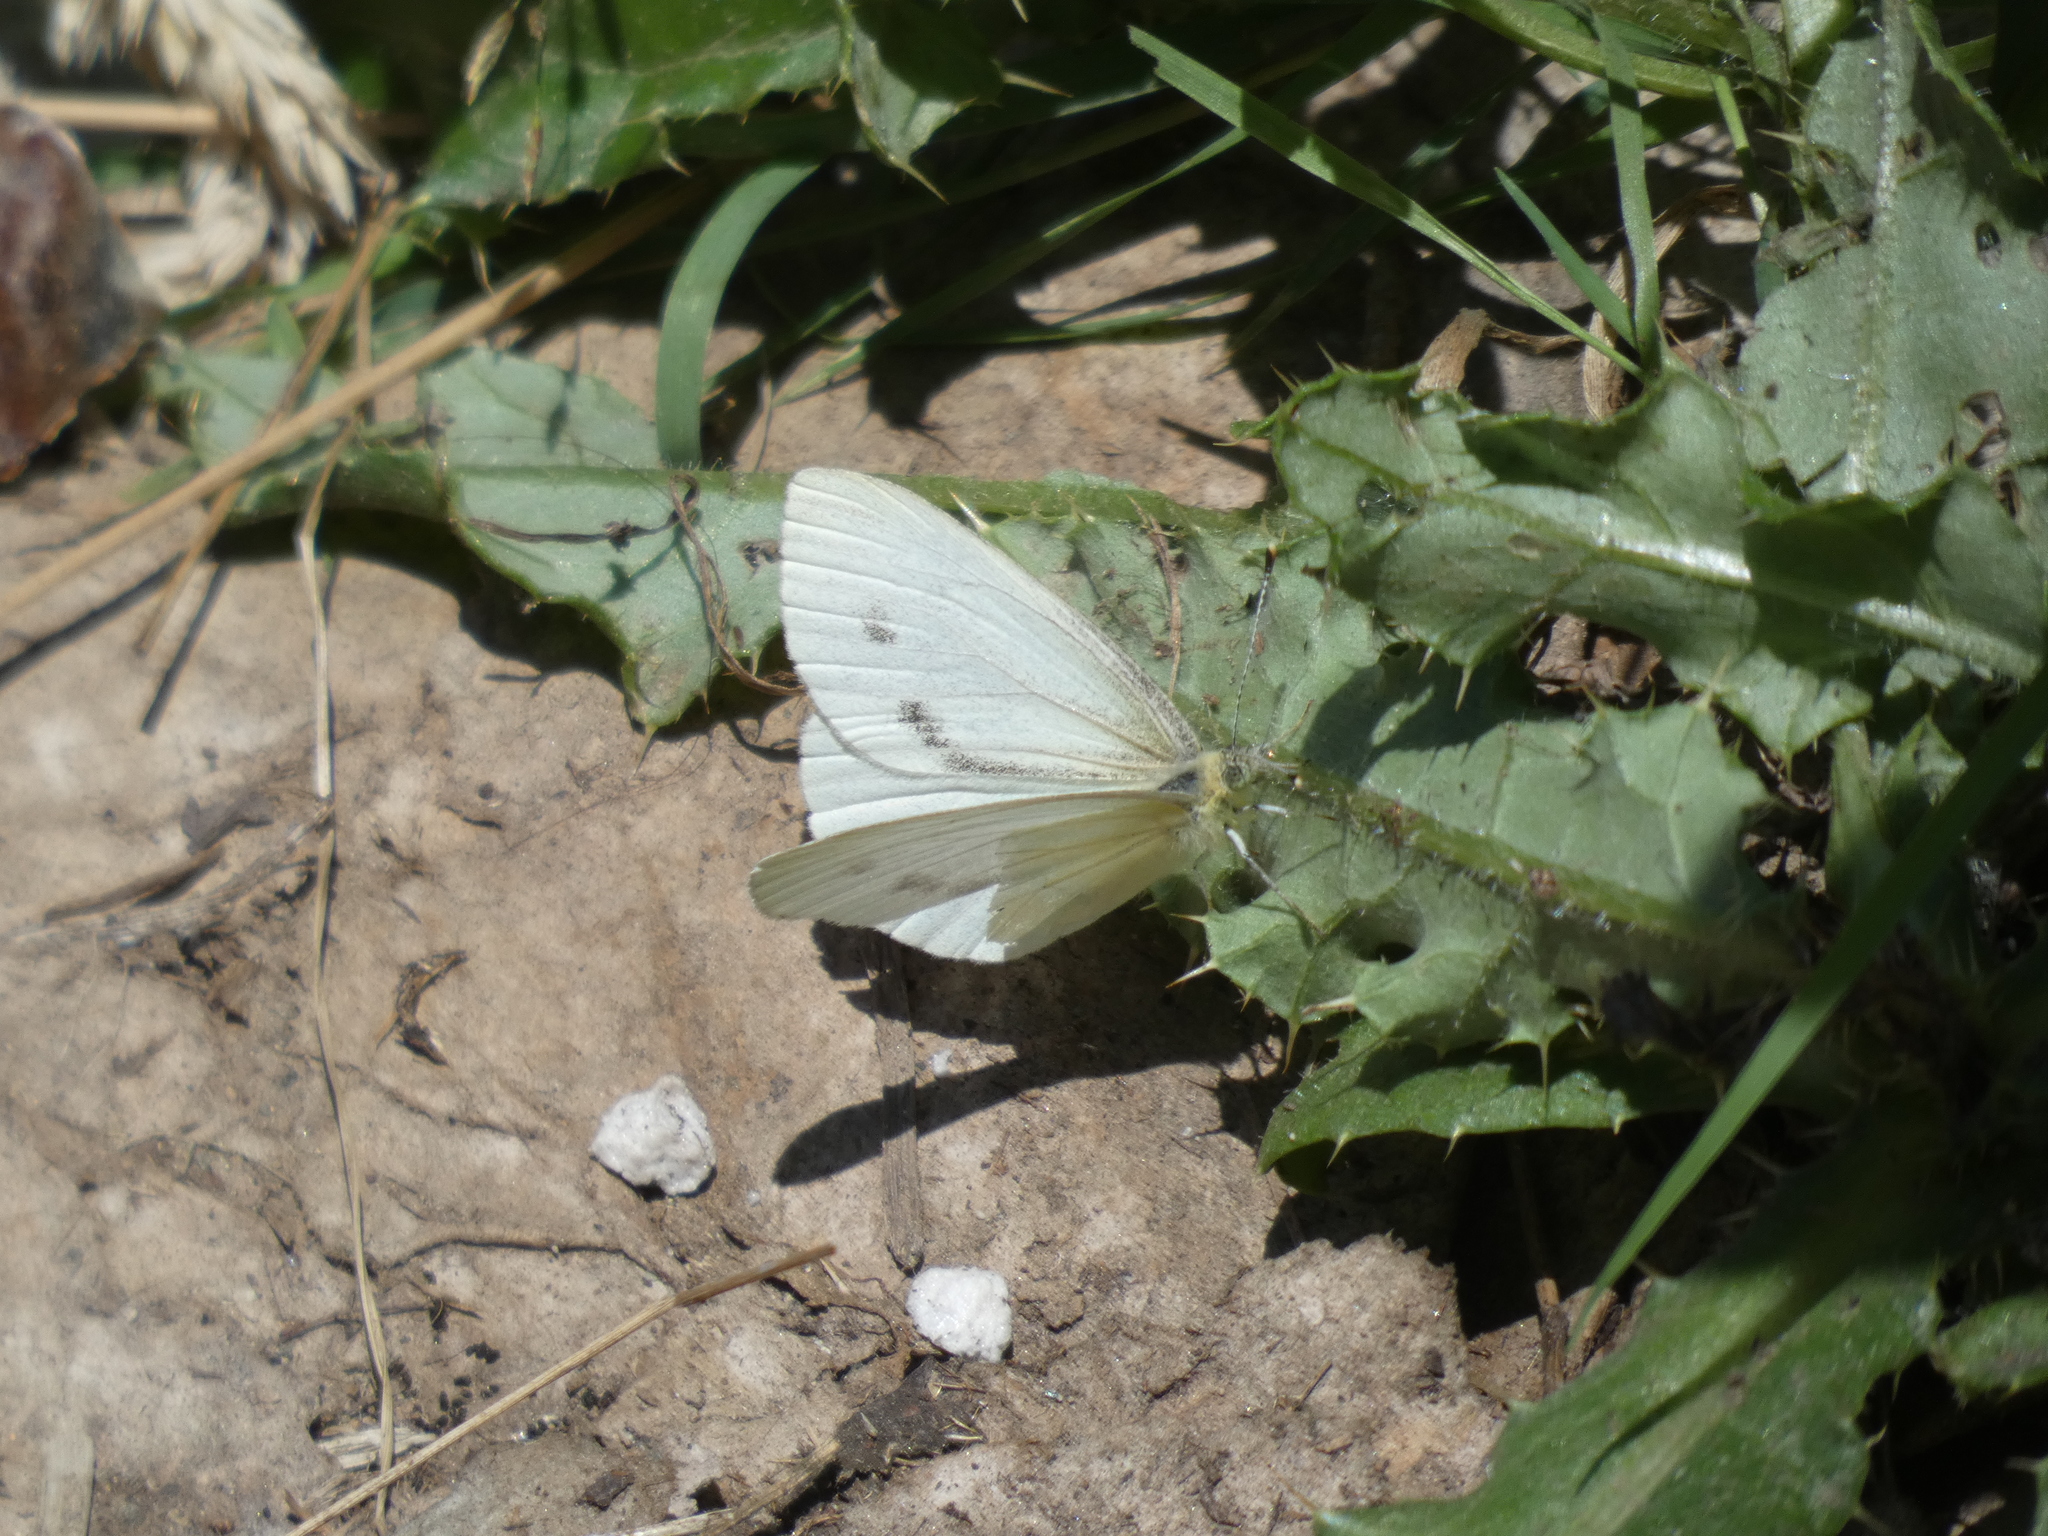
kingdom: Animalia
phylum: Arthropoda
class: Insecta
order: Lepidoptera
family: Pieridae
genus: Pieris
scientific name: Pieris marginalis
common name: Margined white
